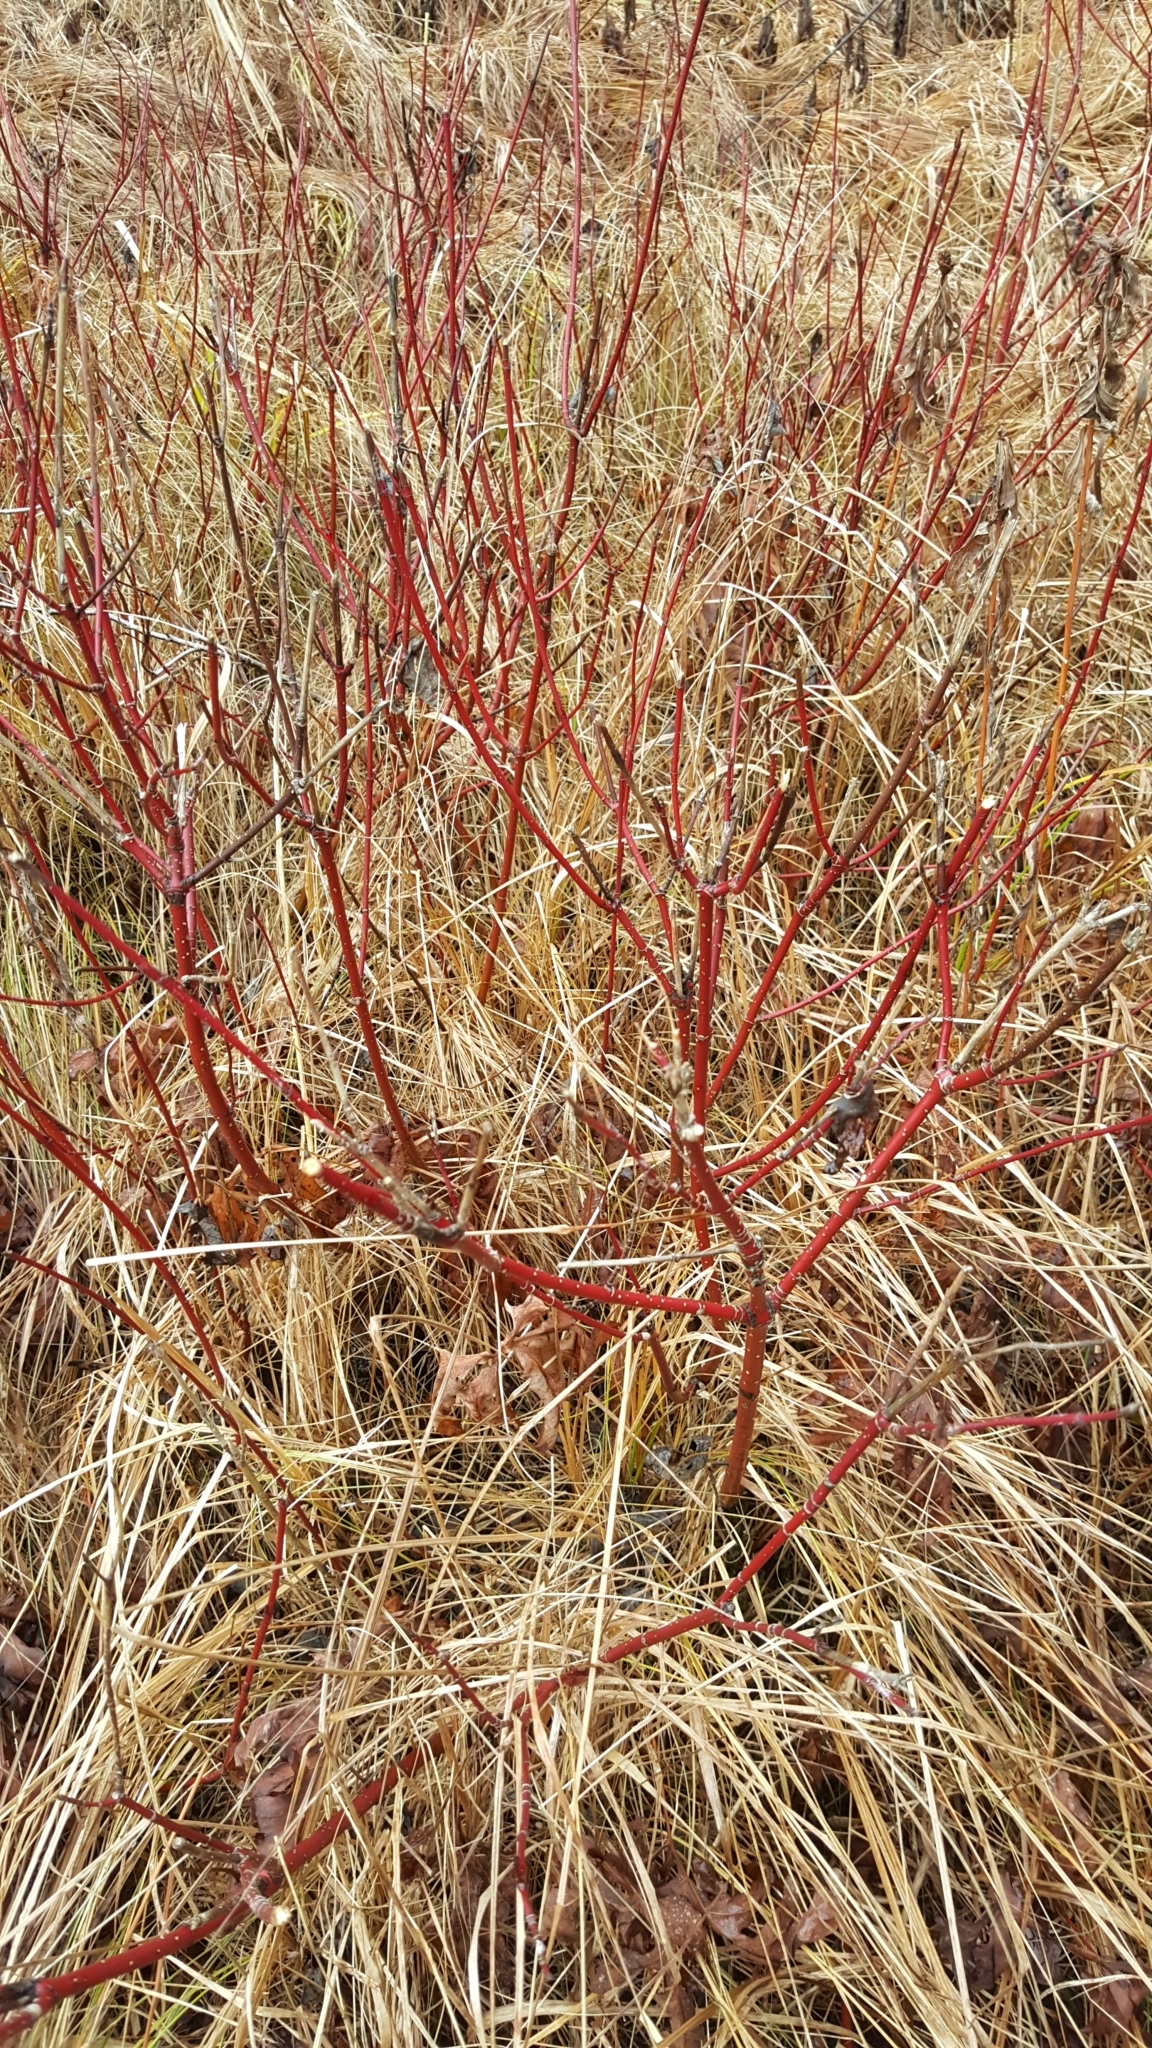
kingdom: Plantae
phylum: Tracheophyta
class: Magnoliopsida
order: Cornales
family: Cornaceae
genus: Cornus
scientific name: Cornus sericea
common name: Red-osier dogwood
